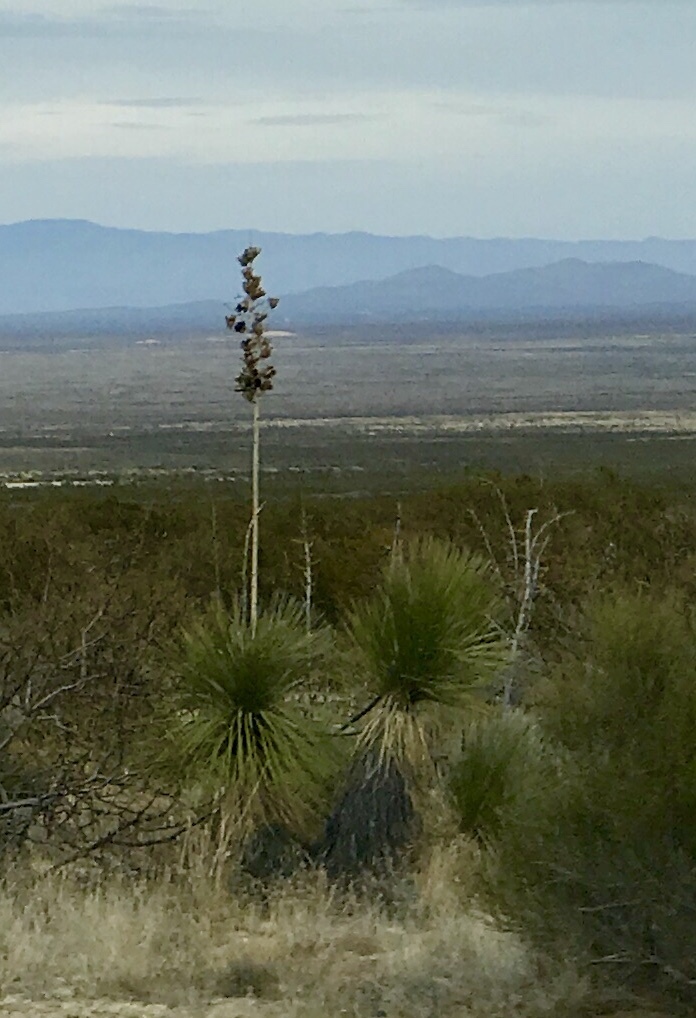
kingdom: Plantae
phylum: Tracheophyta
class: Liliopsida
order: Asparagales
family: Asparagaceae
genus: Yucca
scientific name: Yucca elata
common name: Palmella
